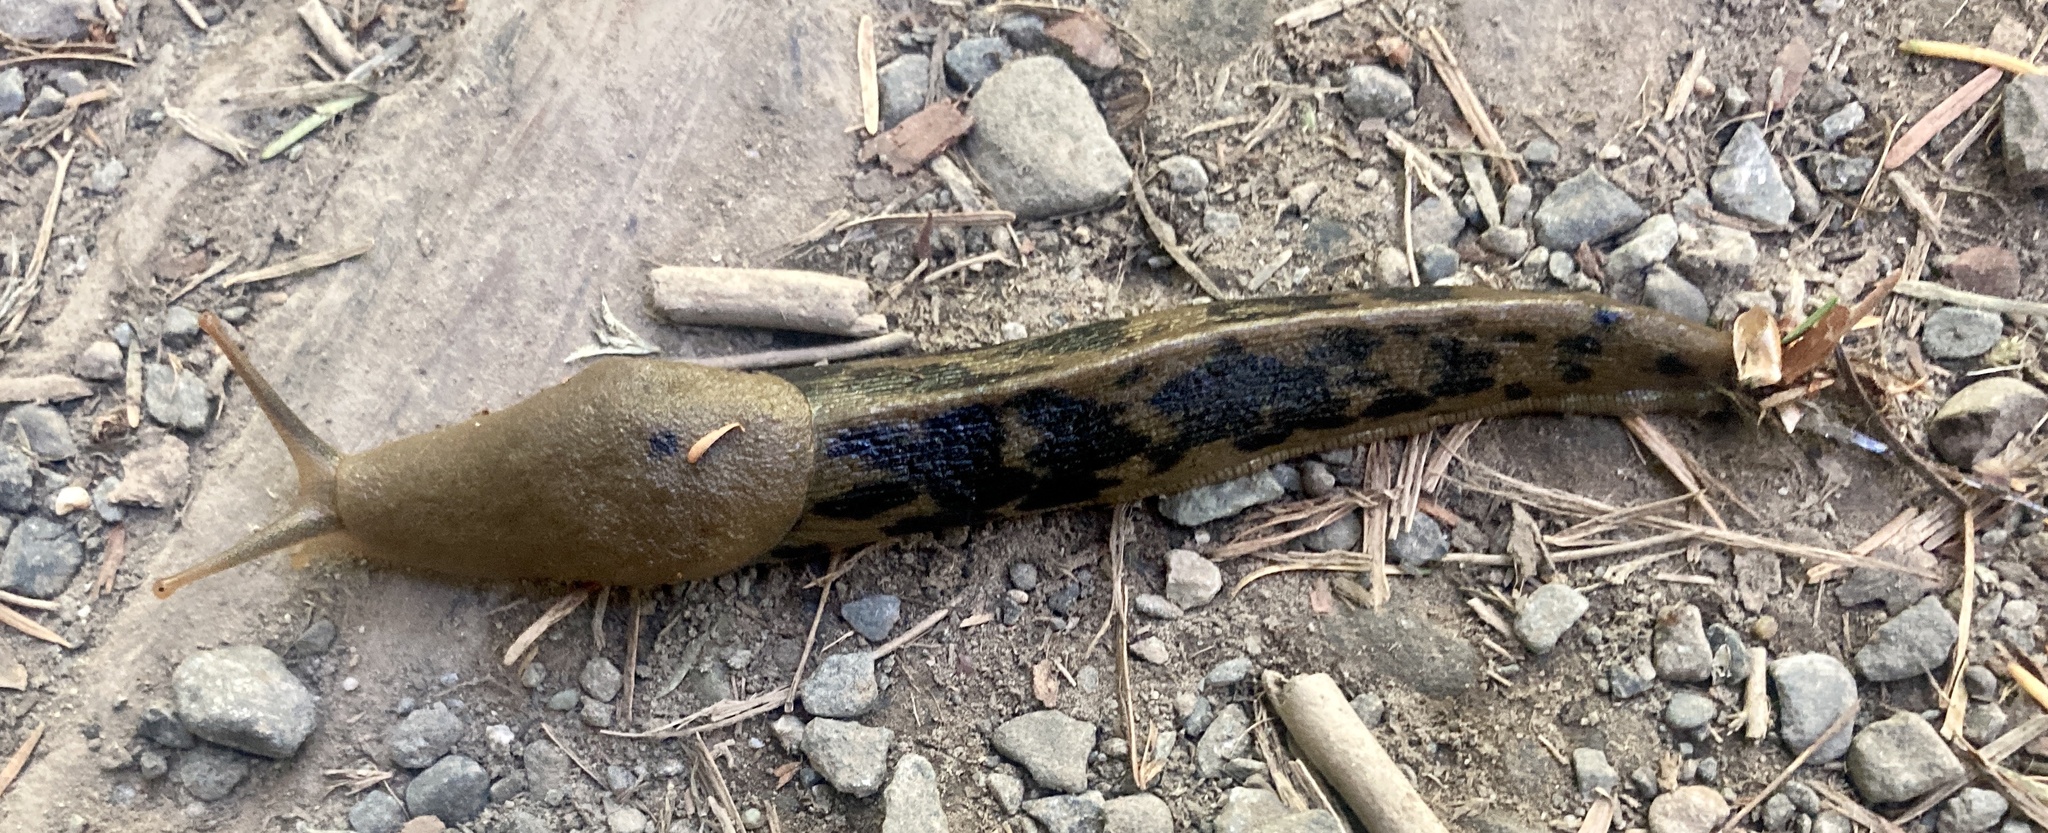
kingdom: Animalia
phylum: Mollusca
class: Gastropoda
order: Stylommatophora
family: Ariolimacidae
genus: Ariolimax
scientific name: Ariolimax columbianus
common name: Pacific banana slug
